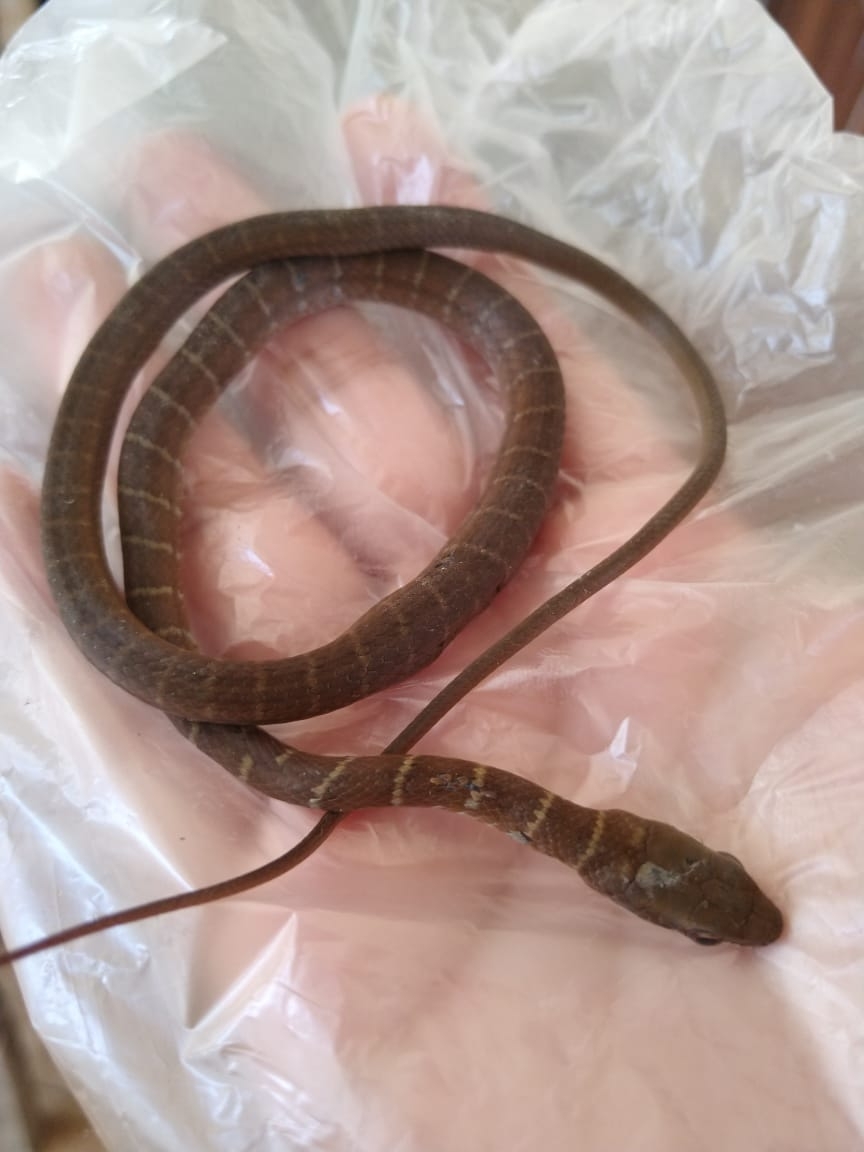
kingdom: Animalia
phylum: Chordata
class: Squamata
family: Colubridae
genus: Mastigodryas
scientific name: Mastigodryas melanolomus
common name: Salmon-bellied racer
